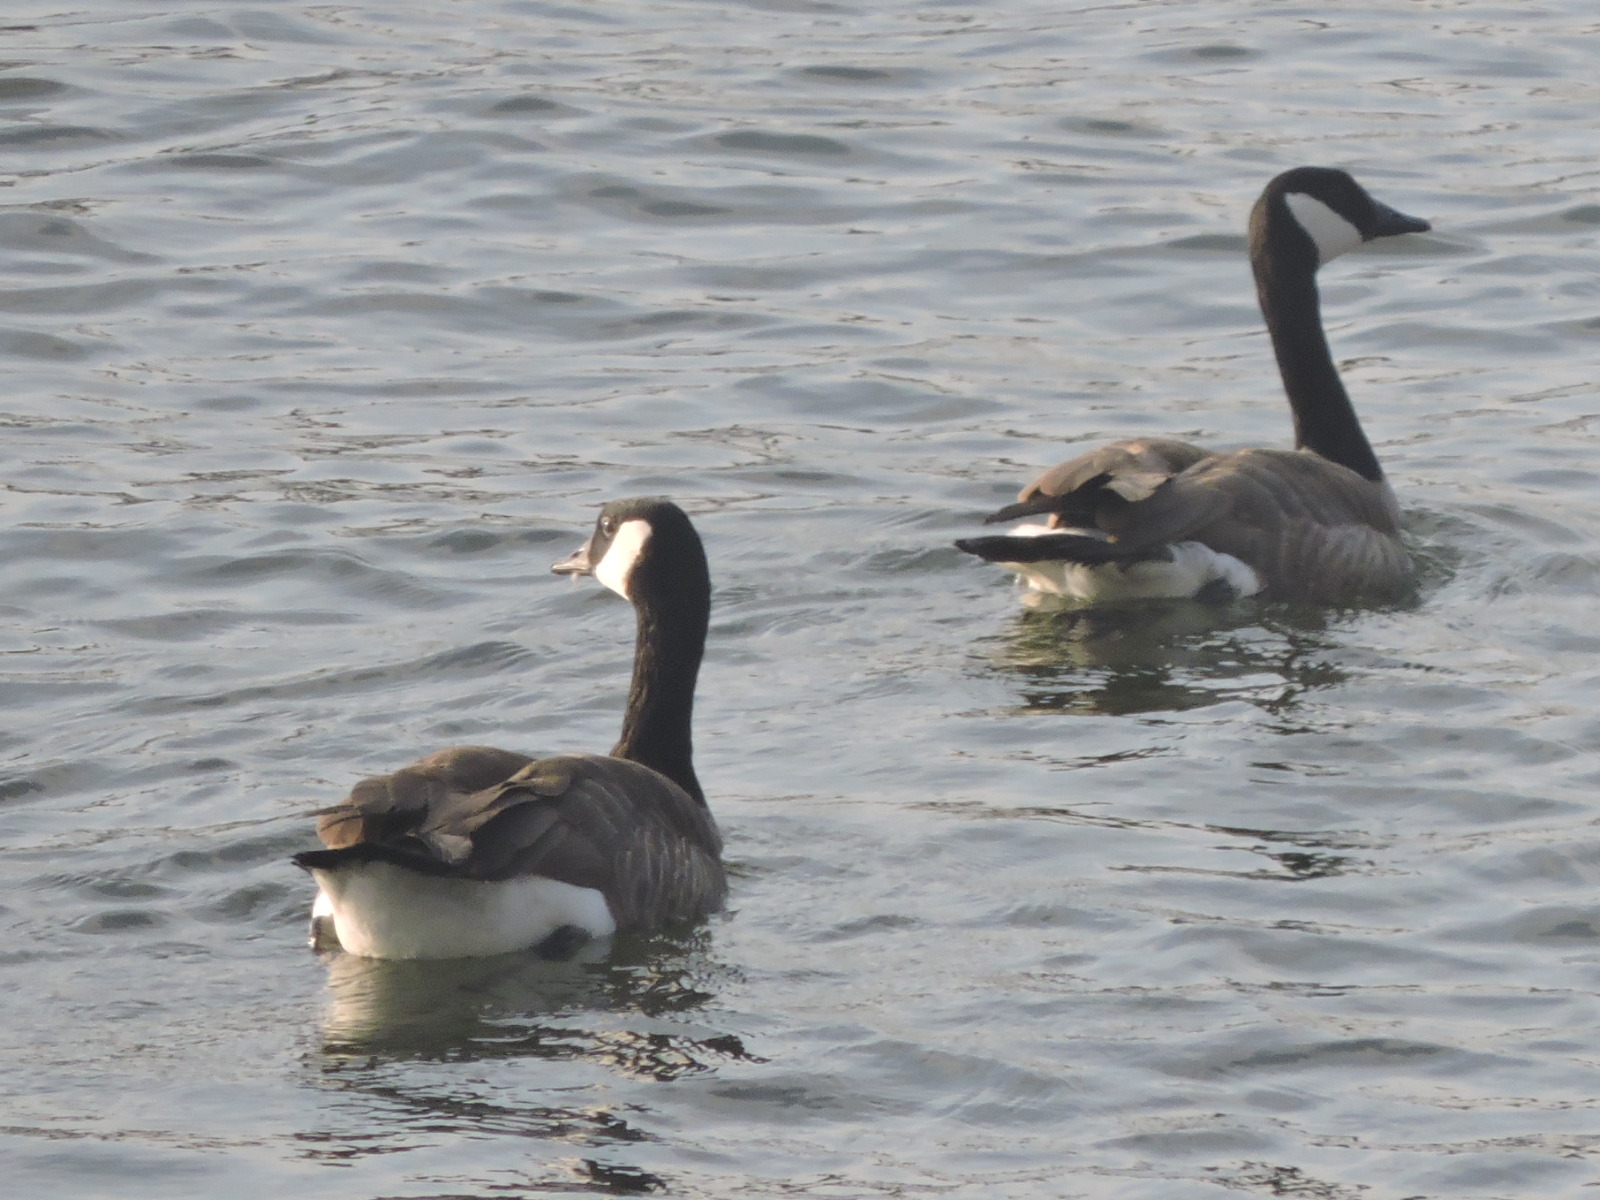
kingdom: Animalia
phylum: Chordata
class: Aves
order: Anseriformes
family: Anatidae
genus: Branta
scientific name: Branta canadensis
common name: Canada goose
